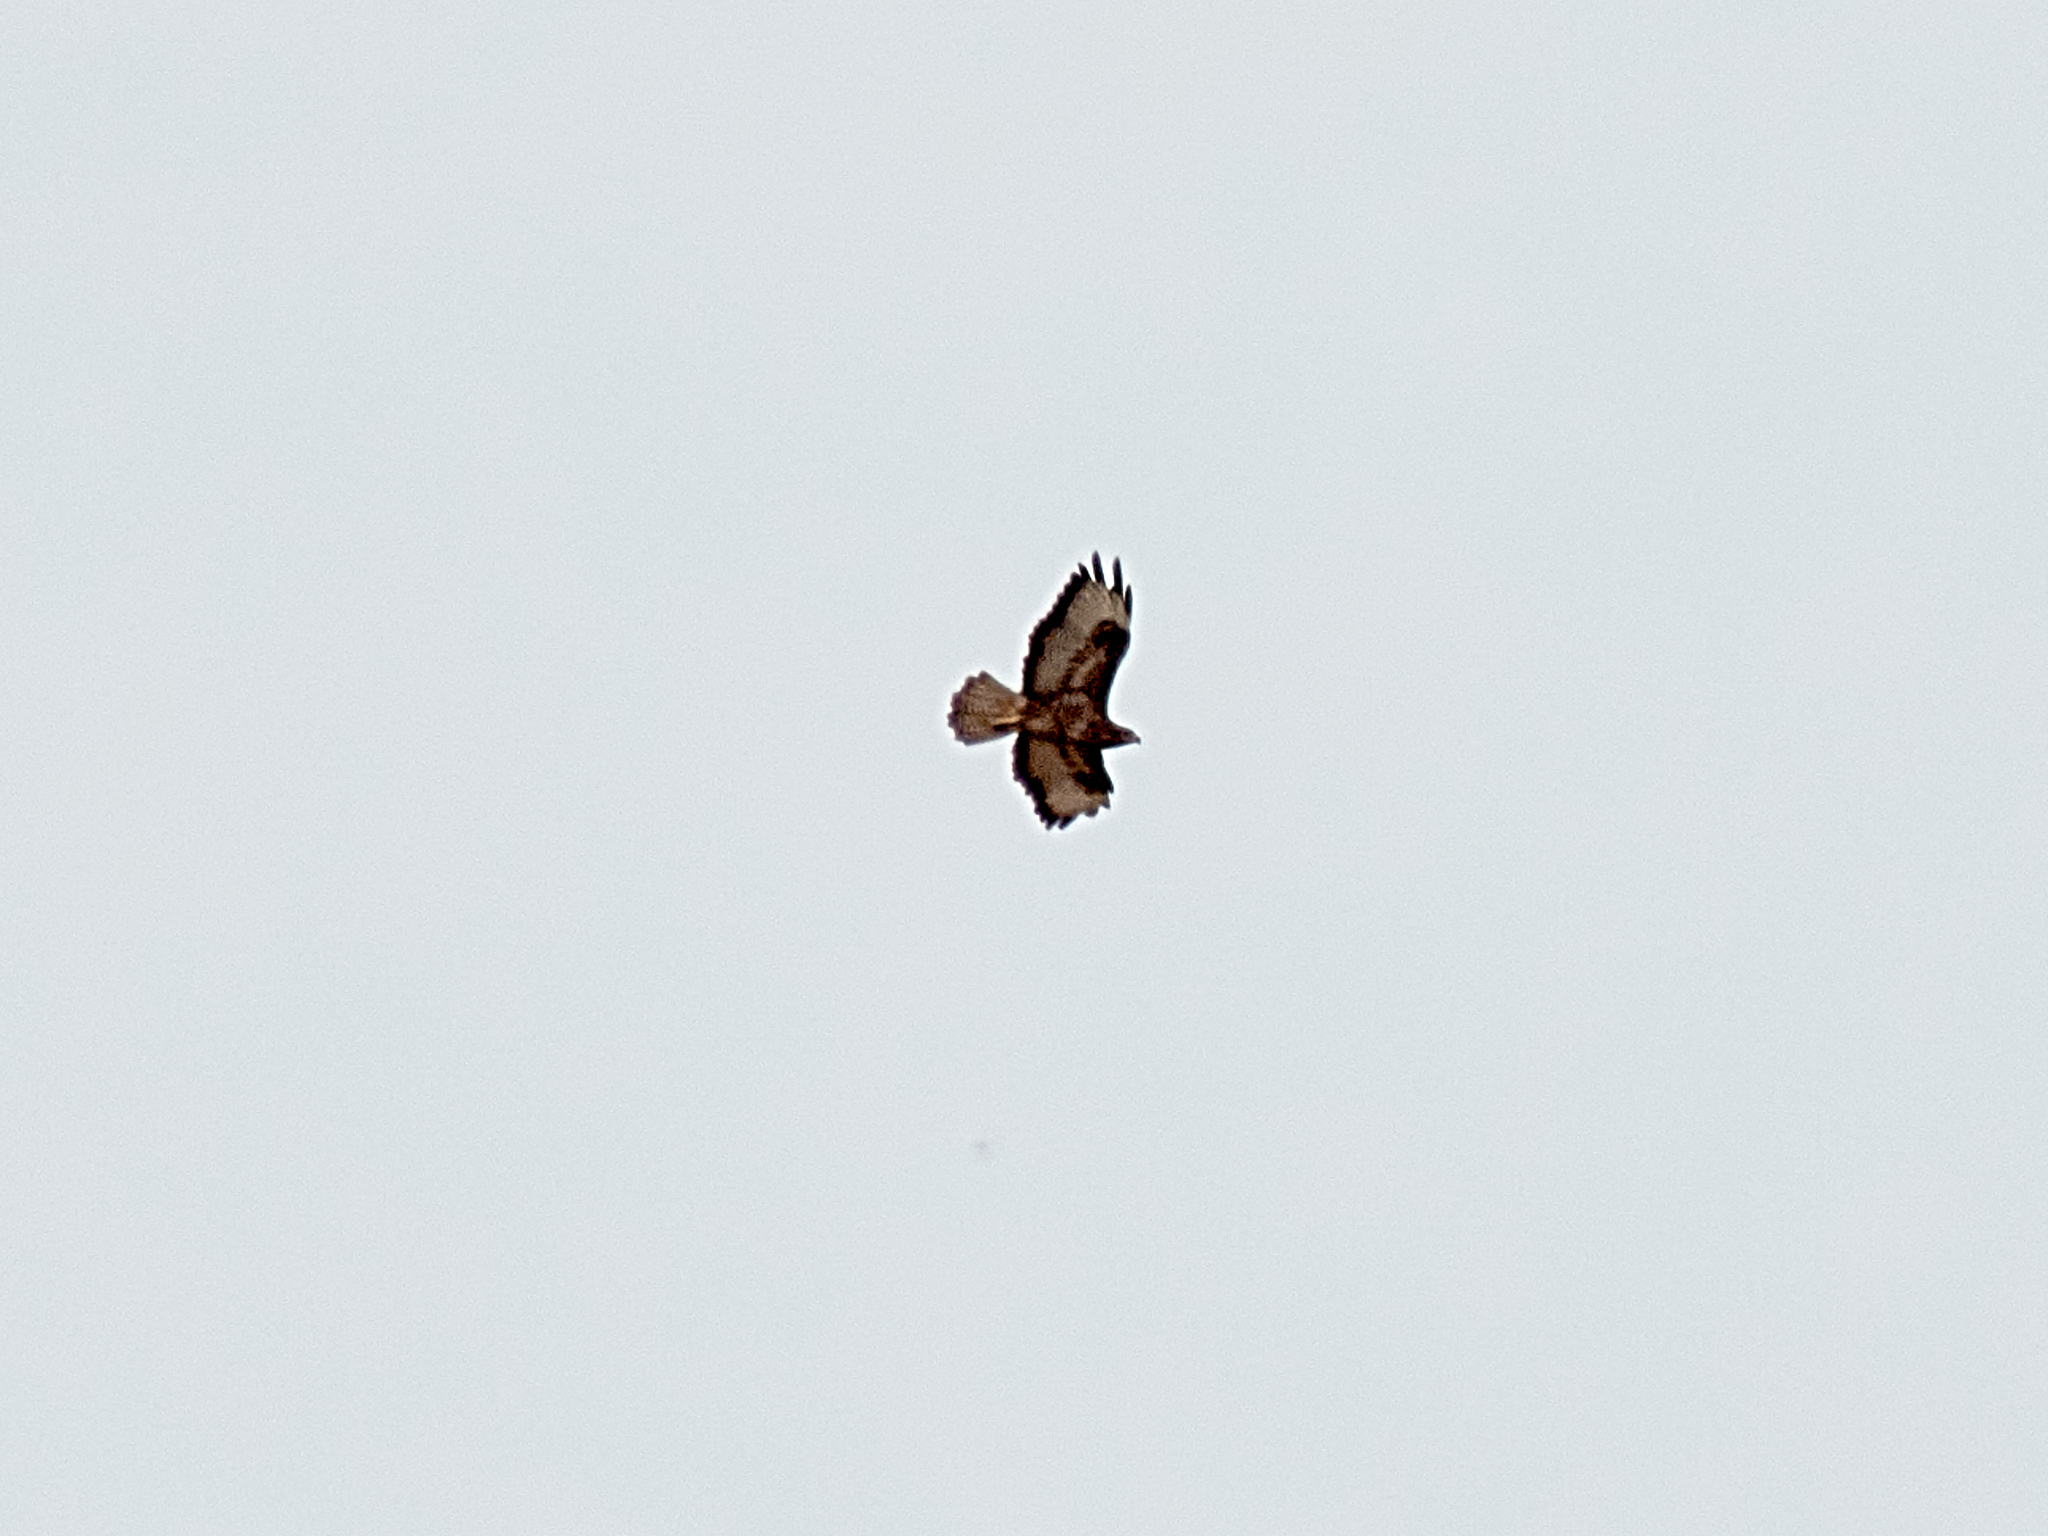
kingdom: Animalia
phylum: Chordata
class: Aves
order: Accipitriformes
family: Accipitridae
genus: Buteo
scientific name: Buteo buteo
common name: Common buzzard
